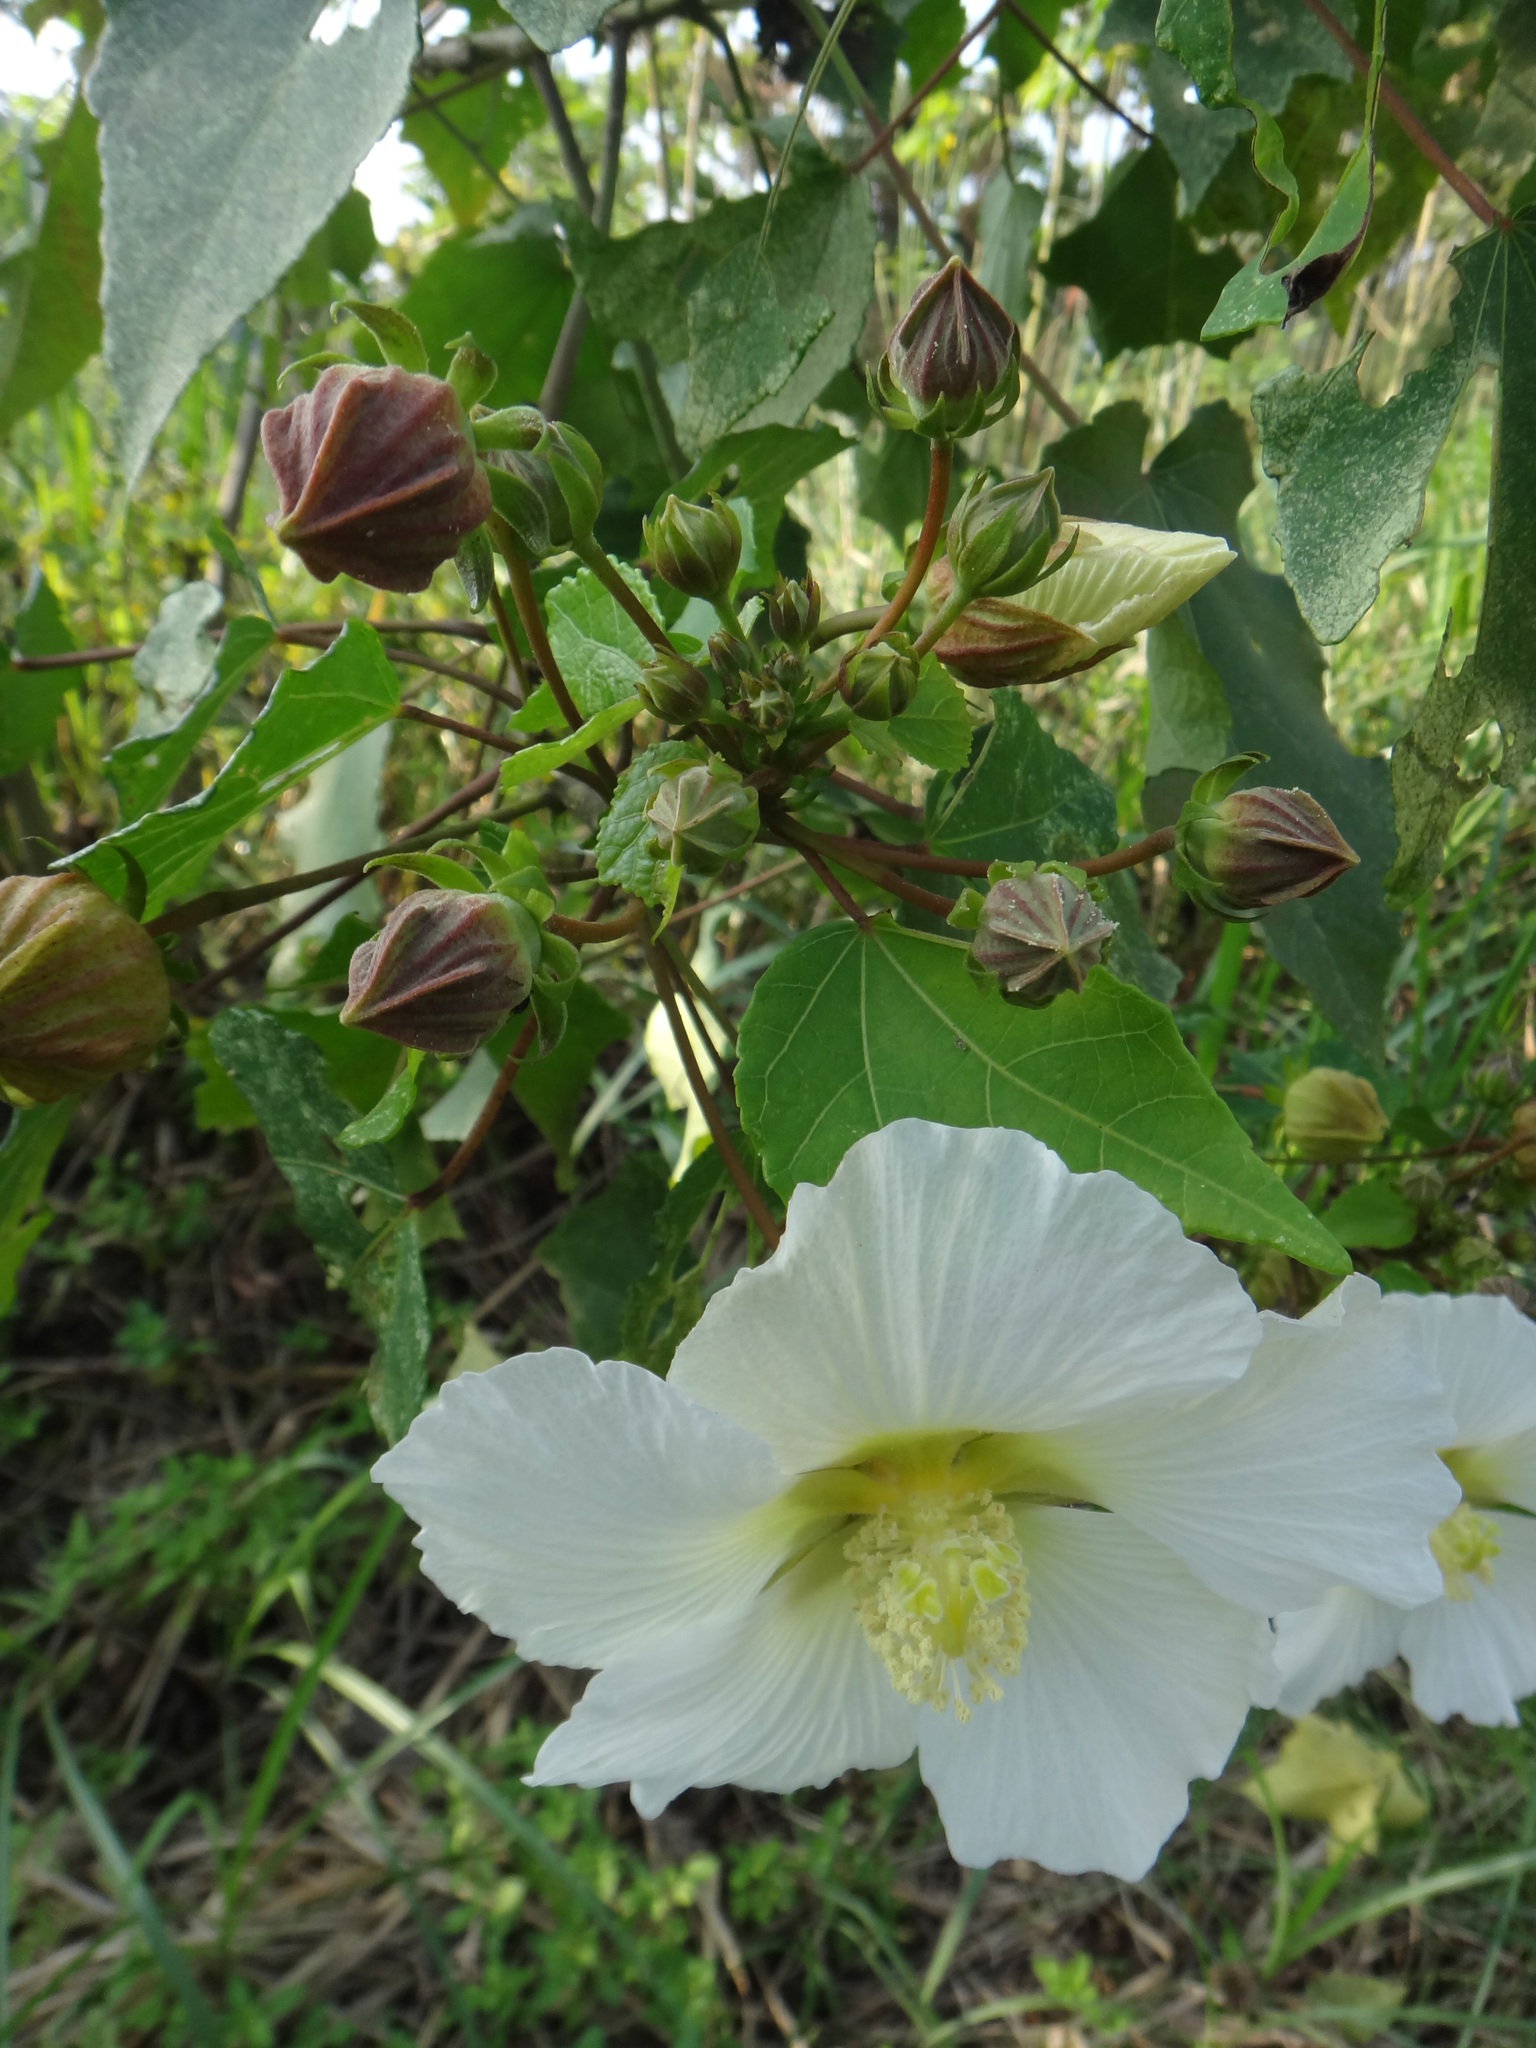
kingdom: Plantae
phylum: Tracheophyta
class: Magnoliopsida
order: Malvales
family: Malvaceae
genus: Hibiscus
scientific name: Hibiscus taiwanensis
